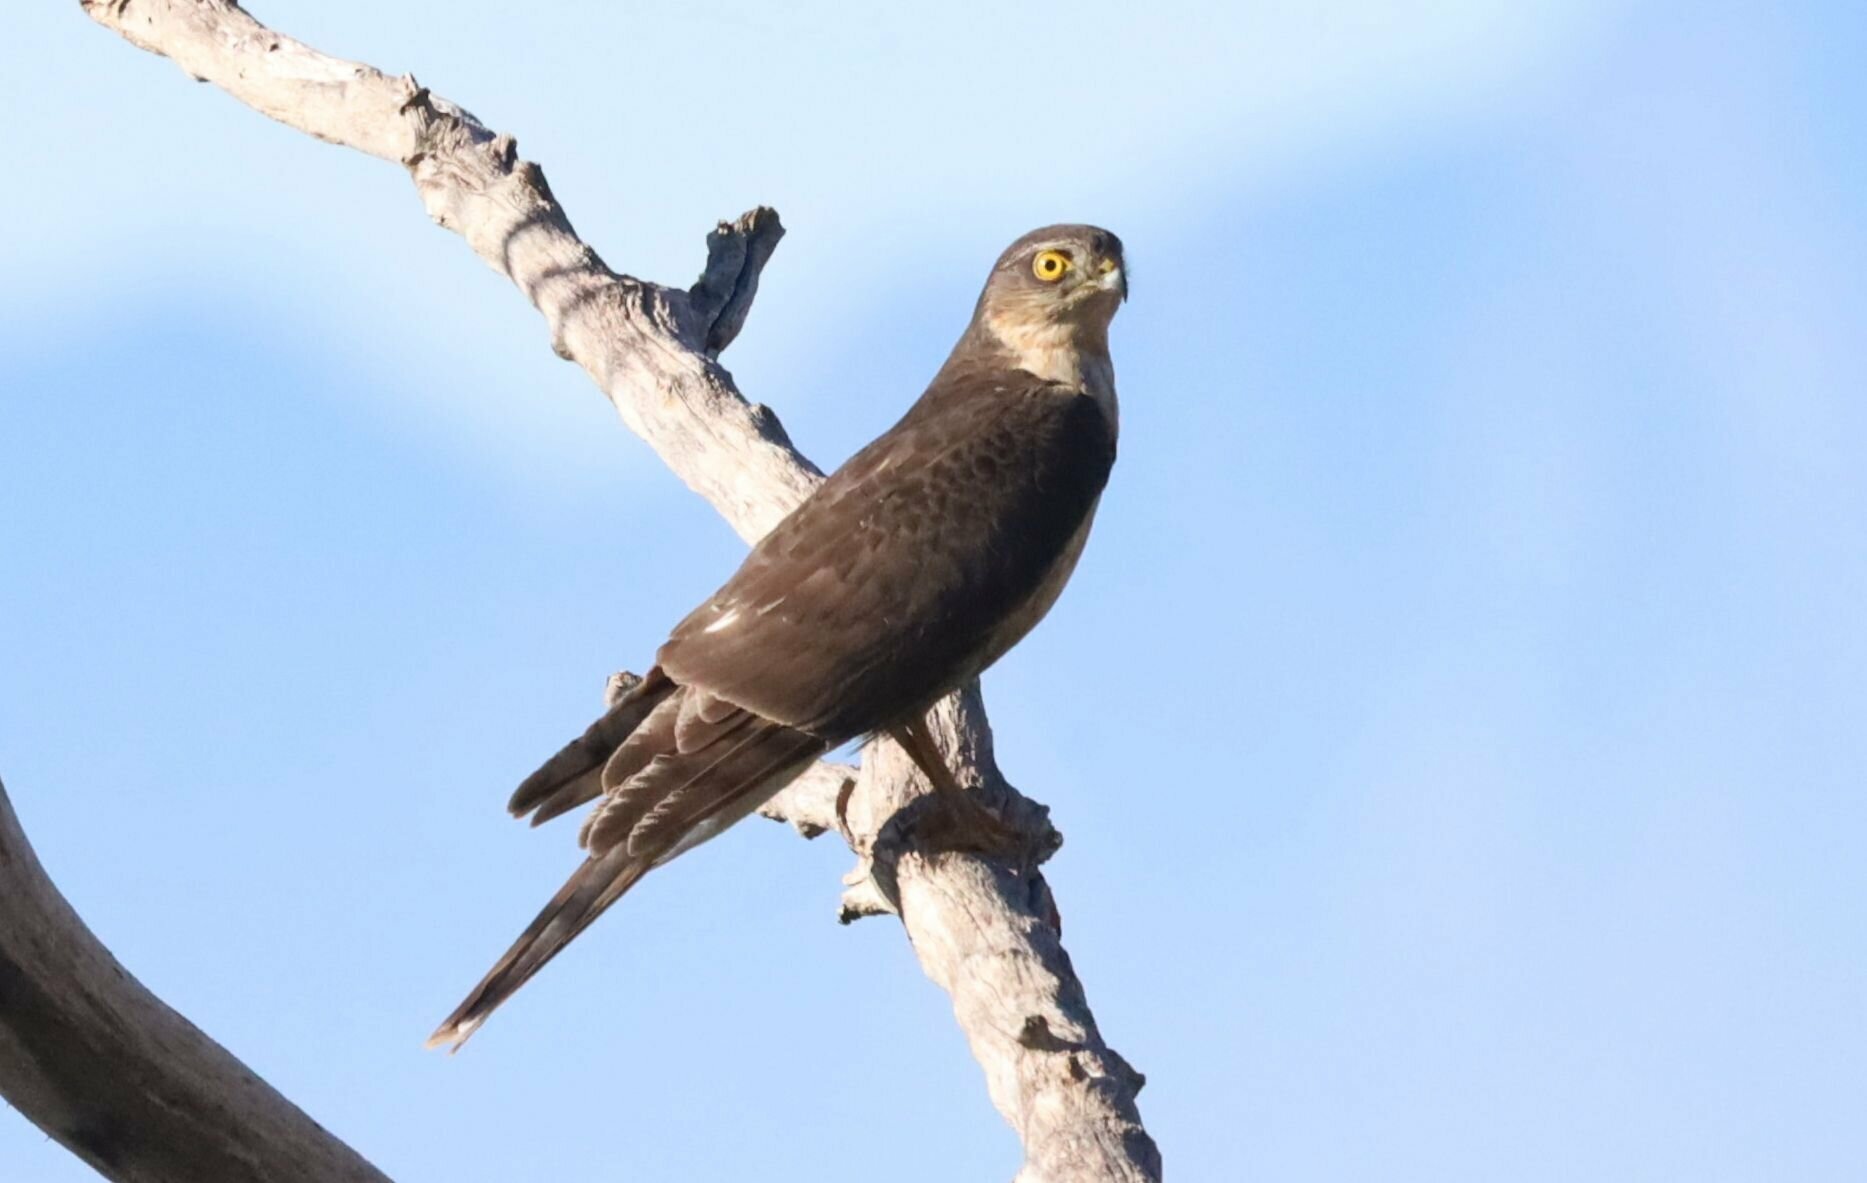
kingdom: Animalia
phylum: Chordata
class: Aves
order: Accipitriformes
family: Accipitridae
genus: Accipiter
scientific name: Accipiter rufiventris
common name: Rufous-breasted sparrowhawk
